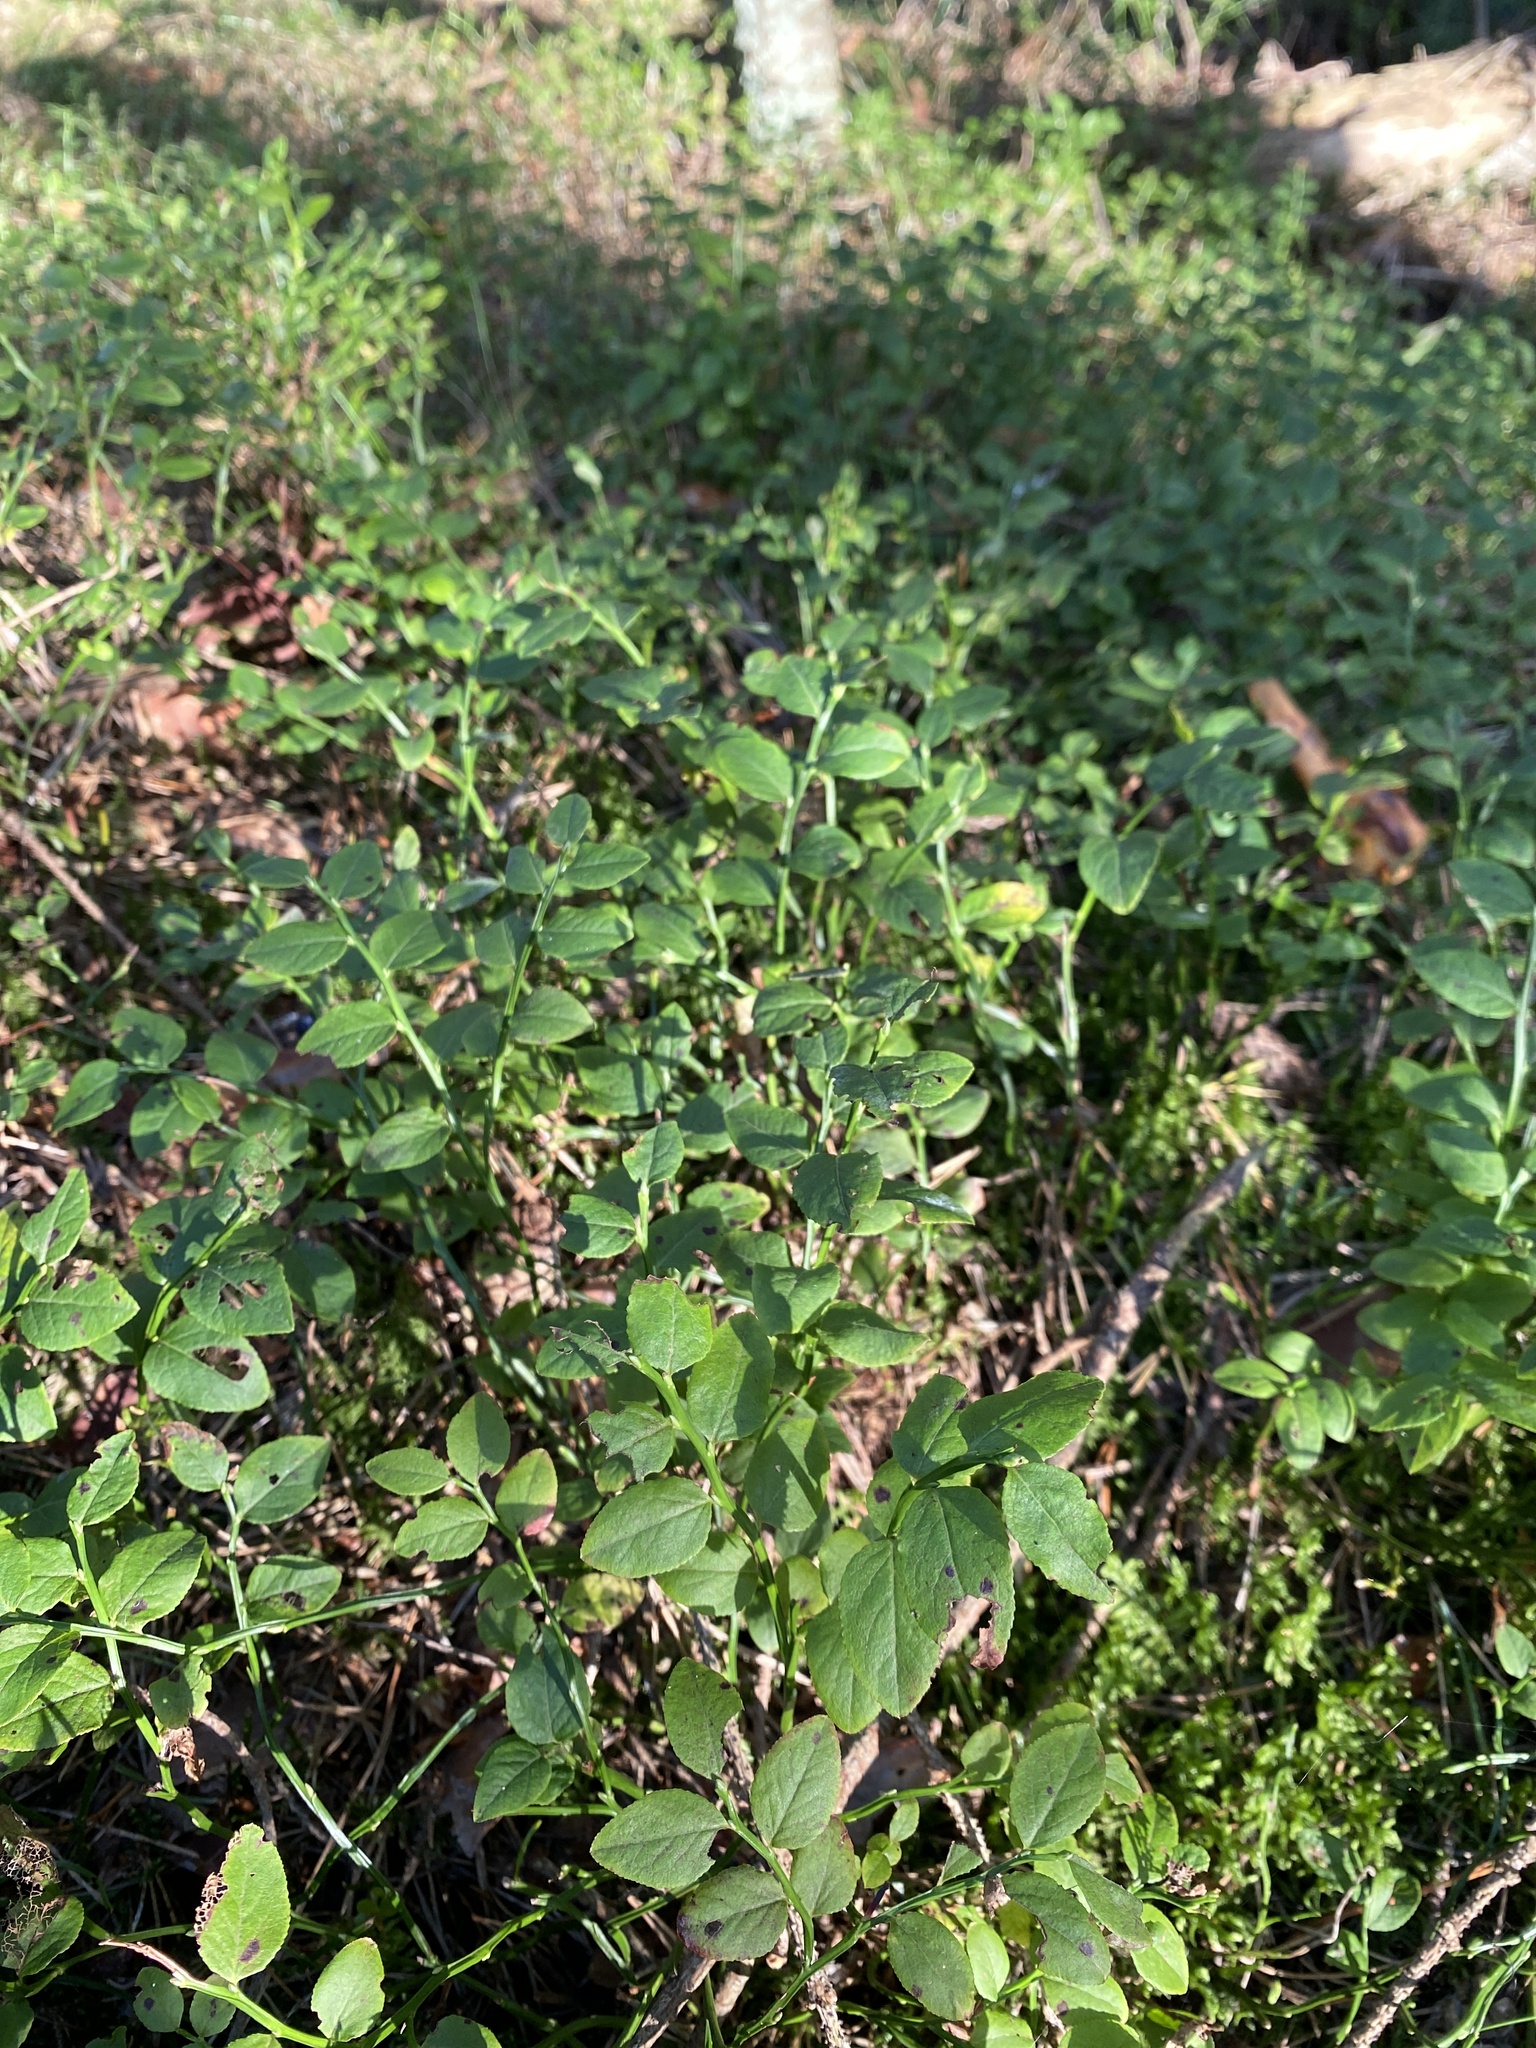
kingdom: Plantae
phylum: Tracheophyta
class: Magnoliopsida
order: Ericales
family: Ericaceae
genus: Vaccinium
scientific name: Vaccinium myrtillus
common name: Bilberry
